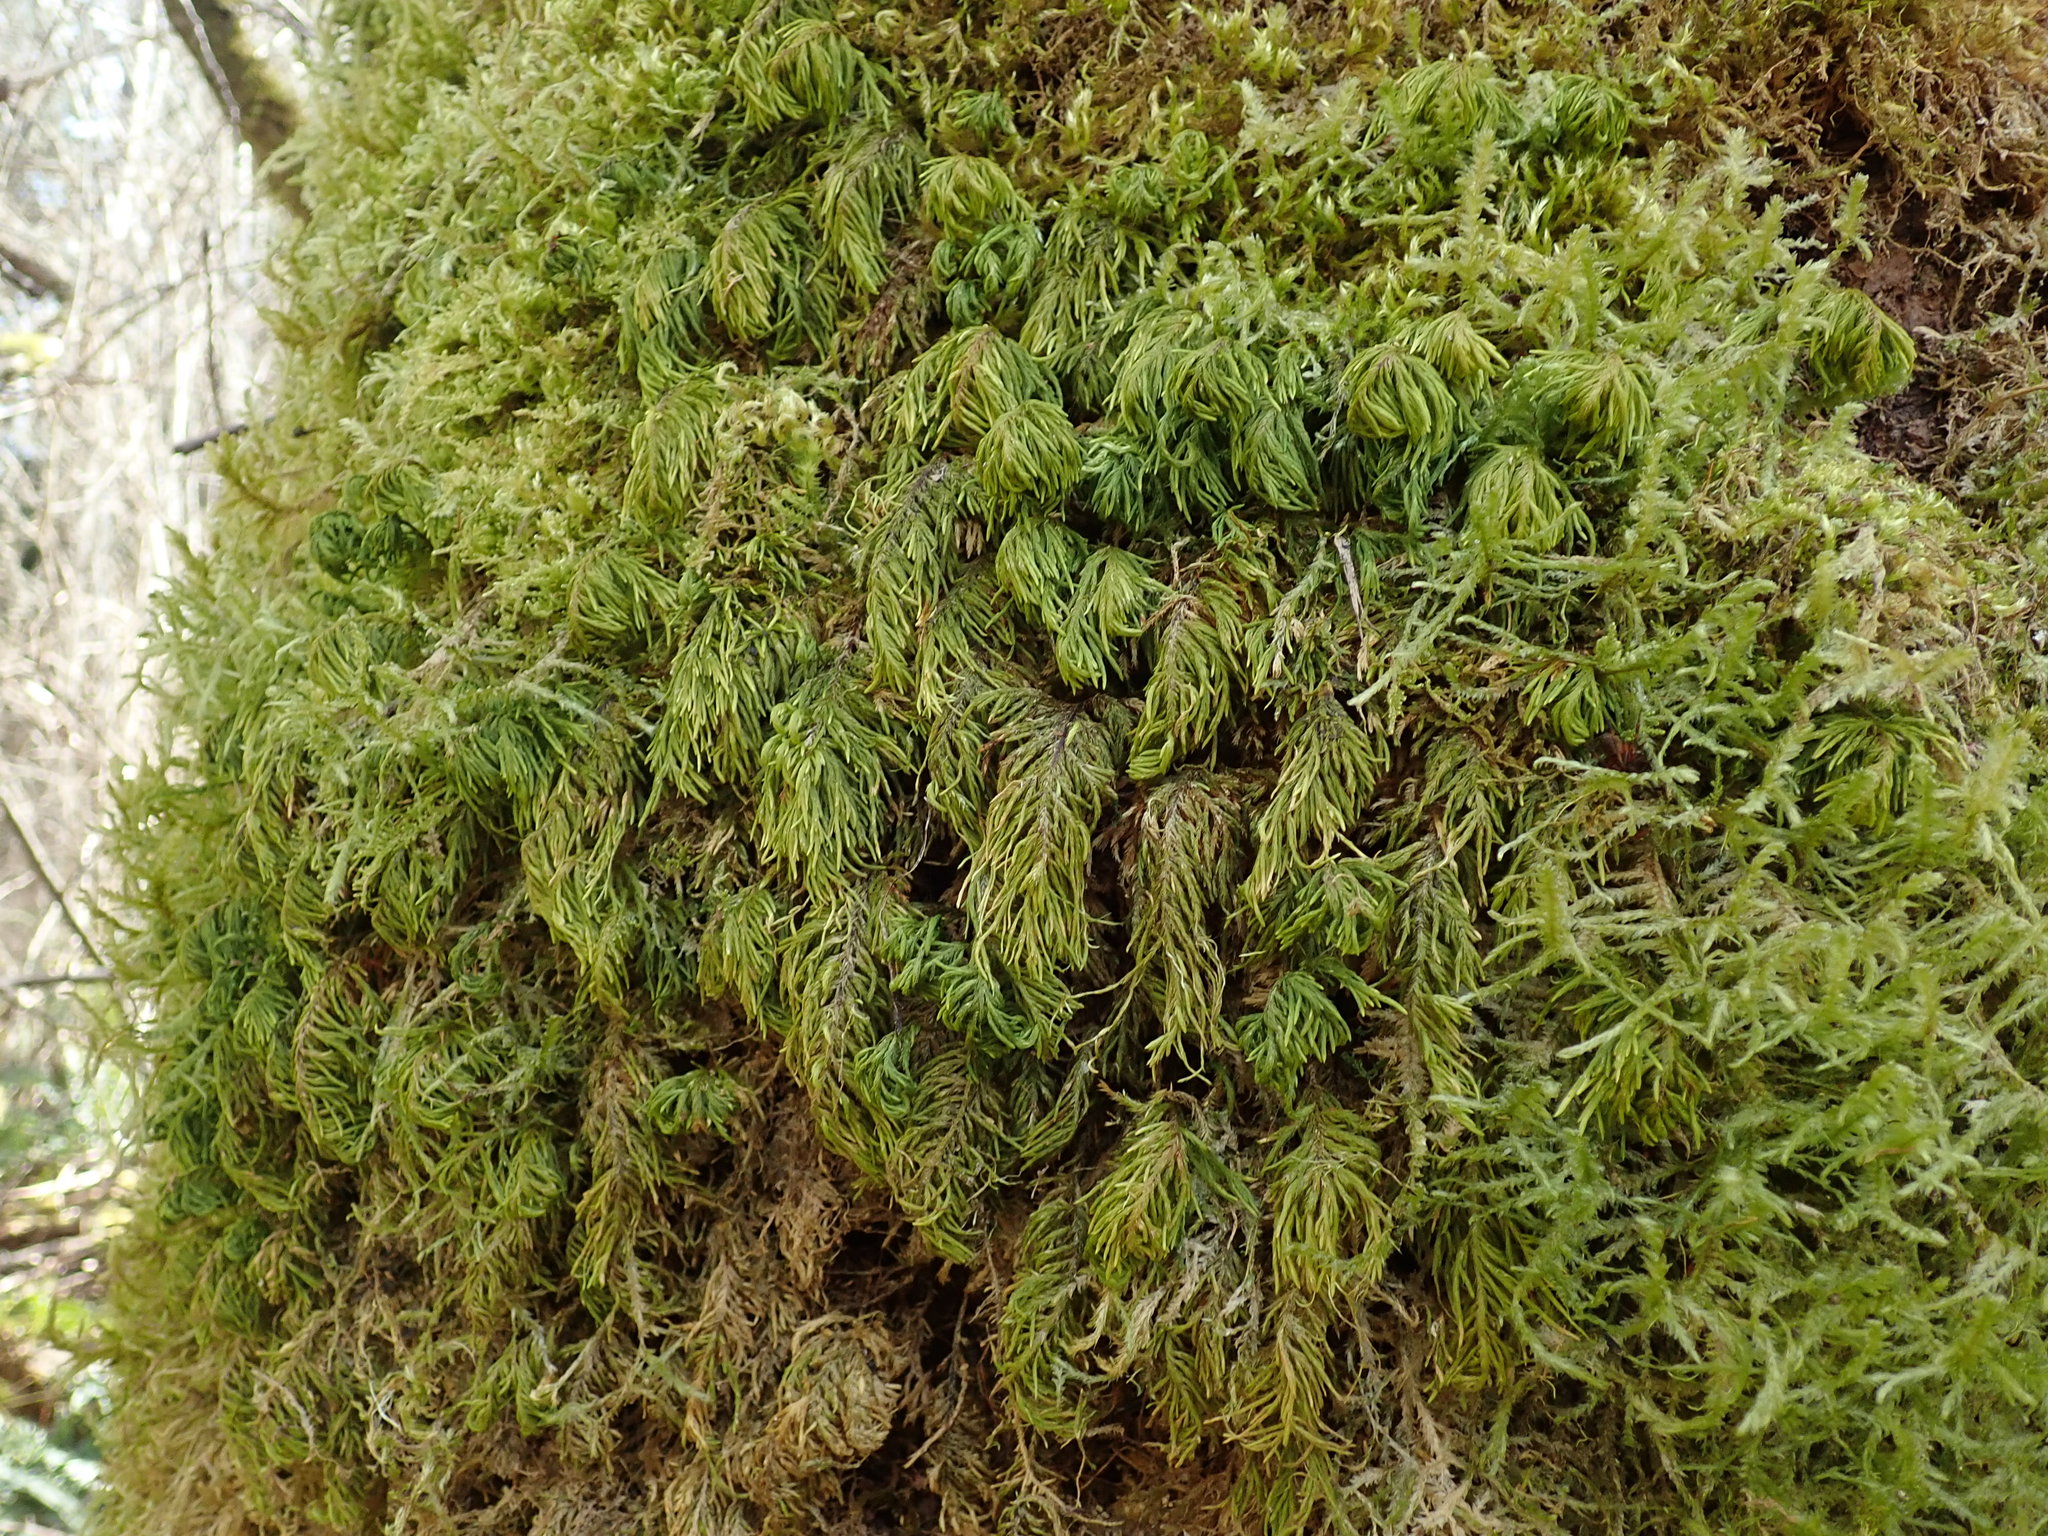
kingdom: Plantae
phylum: Bryophyta
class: Bryopsida
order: Hypnales
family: Cryphaeaceae
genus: Dendroalsia
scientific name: Dendroalsia abietina
